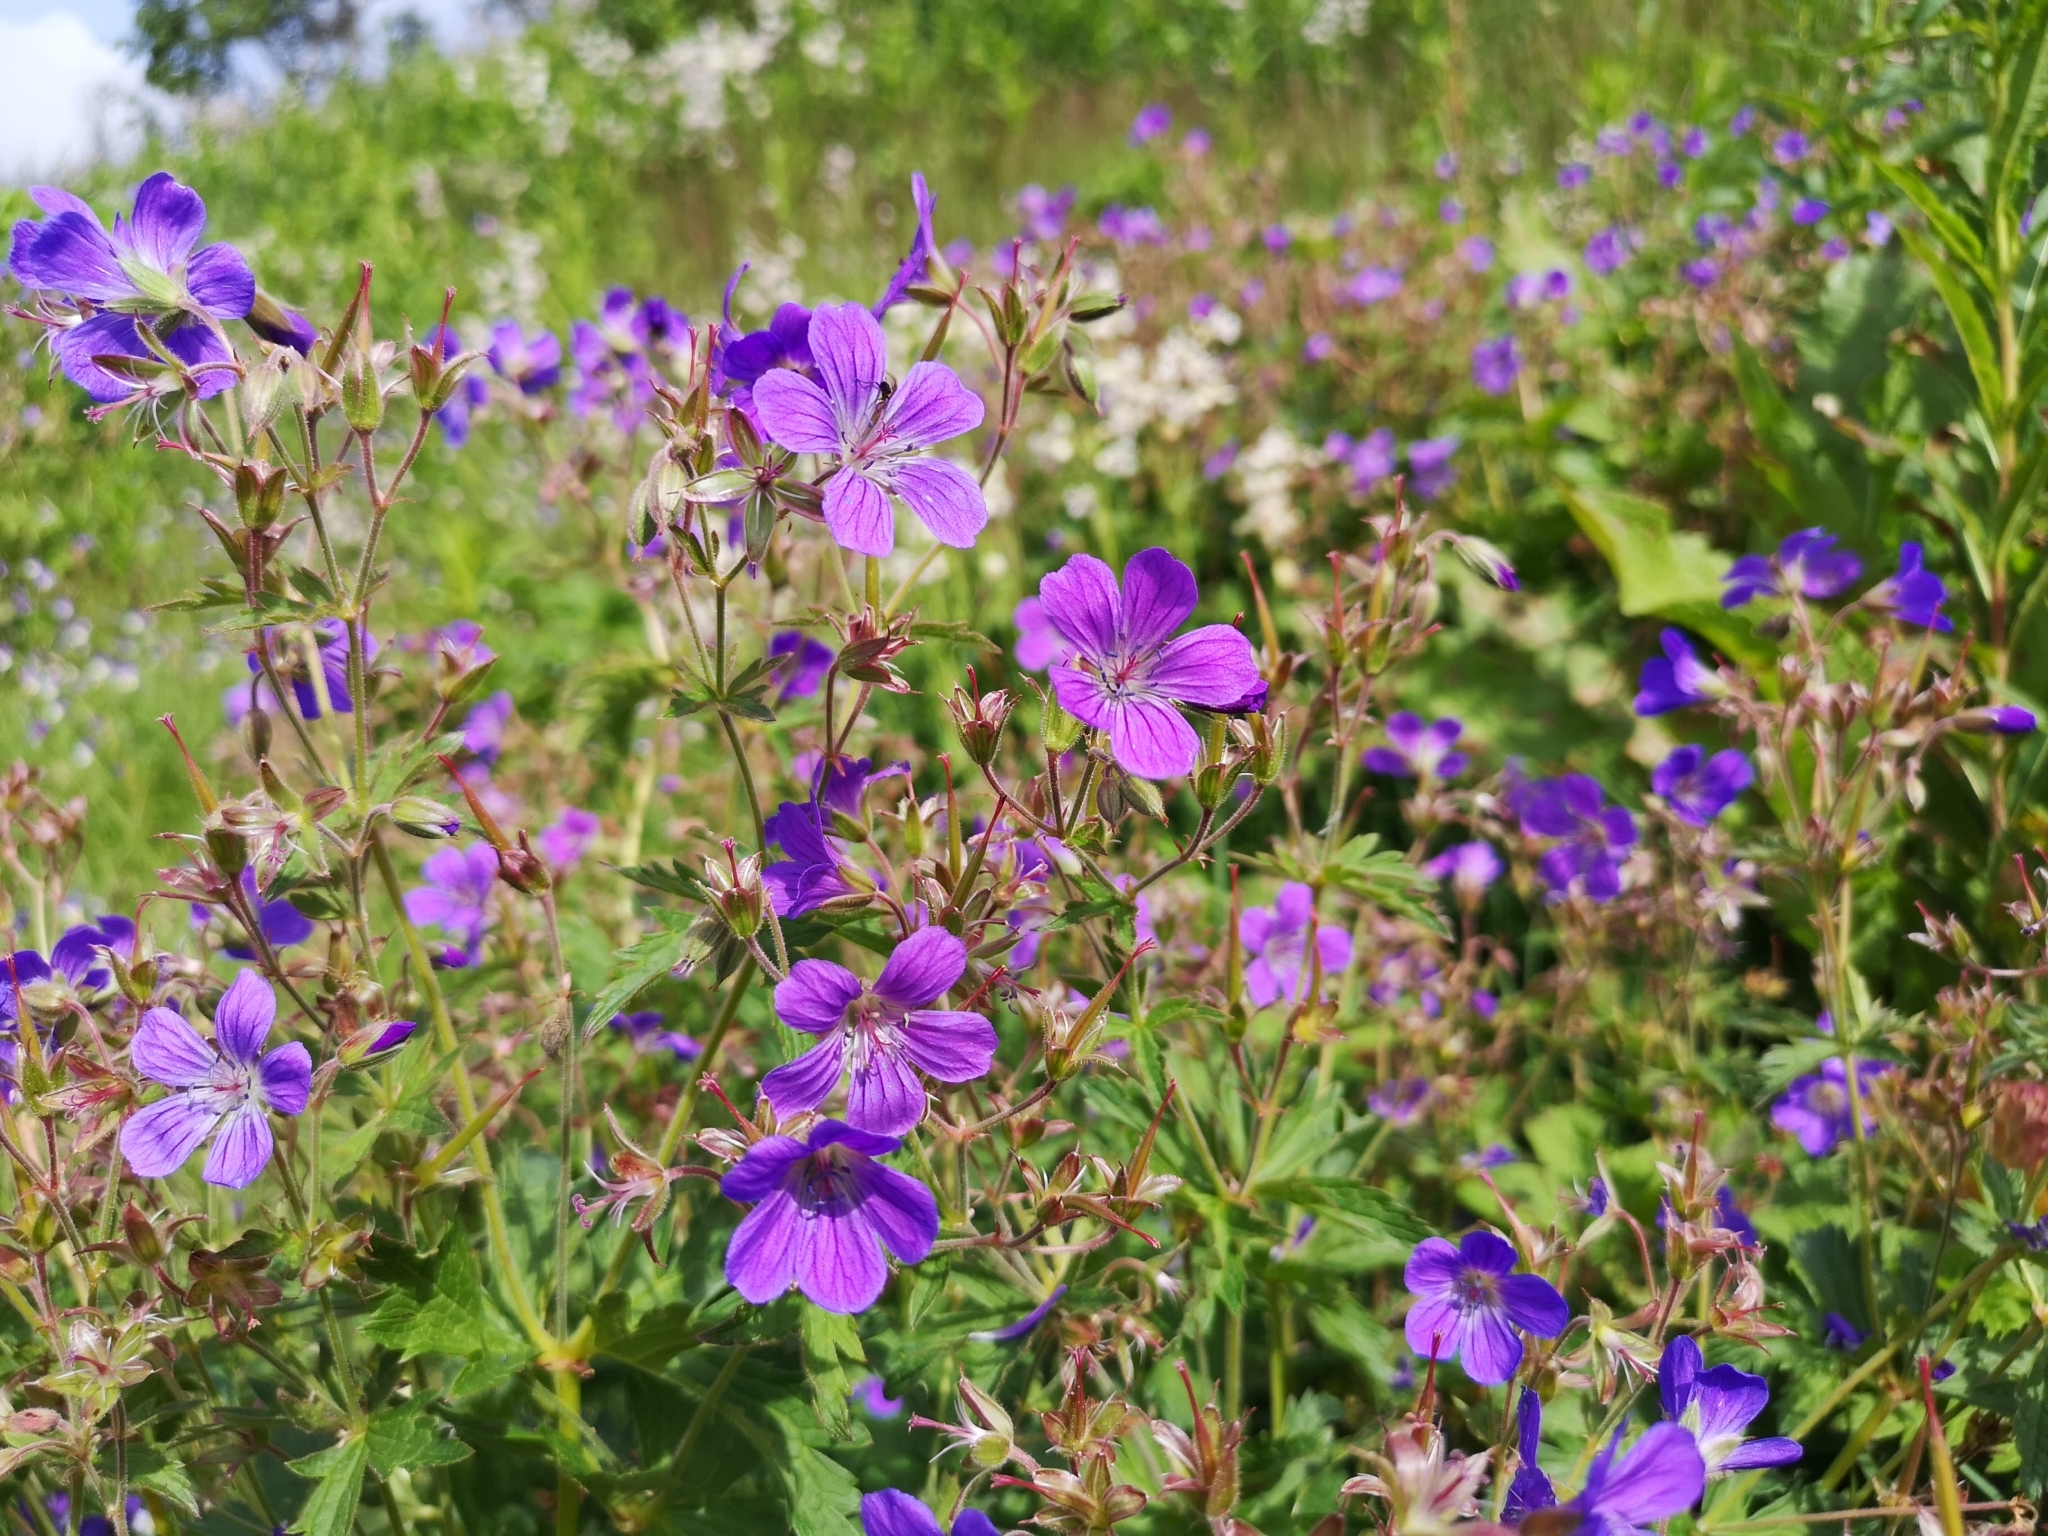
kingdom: Plantae
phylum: Tracheophyta
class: Magnoliopsida
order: Geraniales
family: Geraniaceae
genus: Geranium
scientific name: Geranium sylvaticum
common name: Wood crane's-bill
